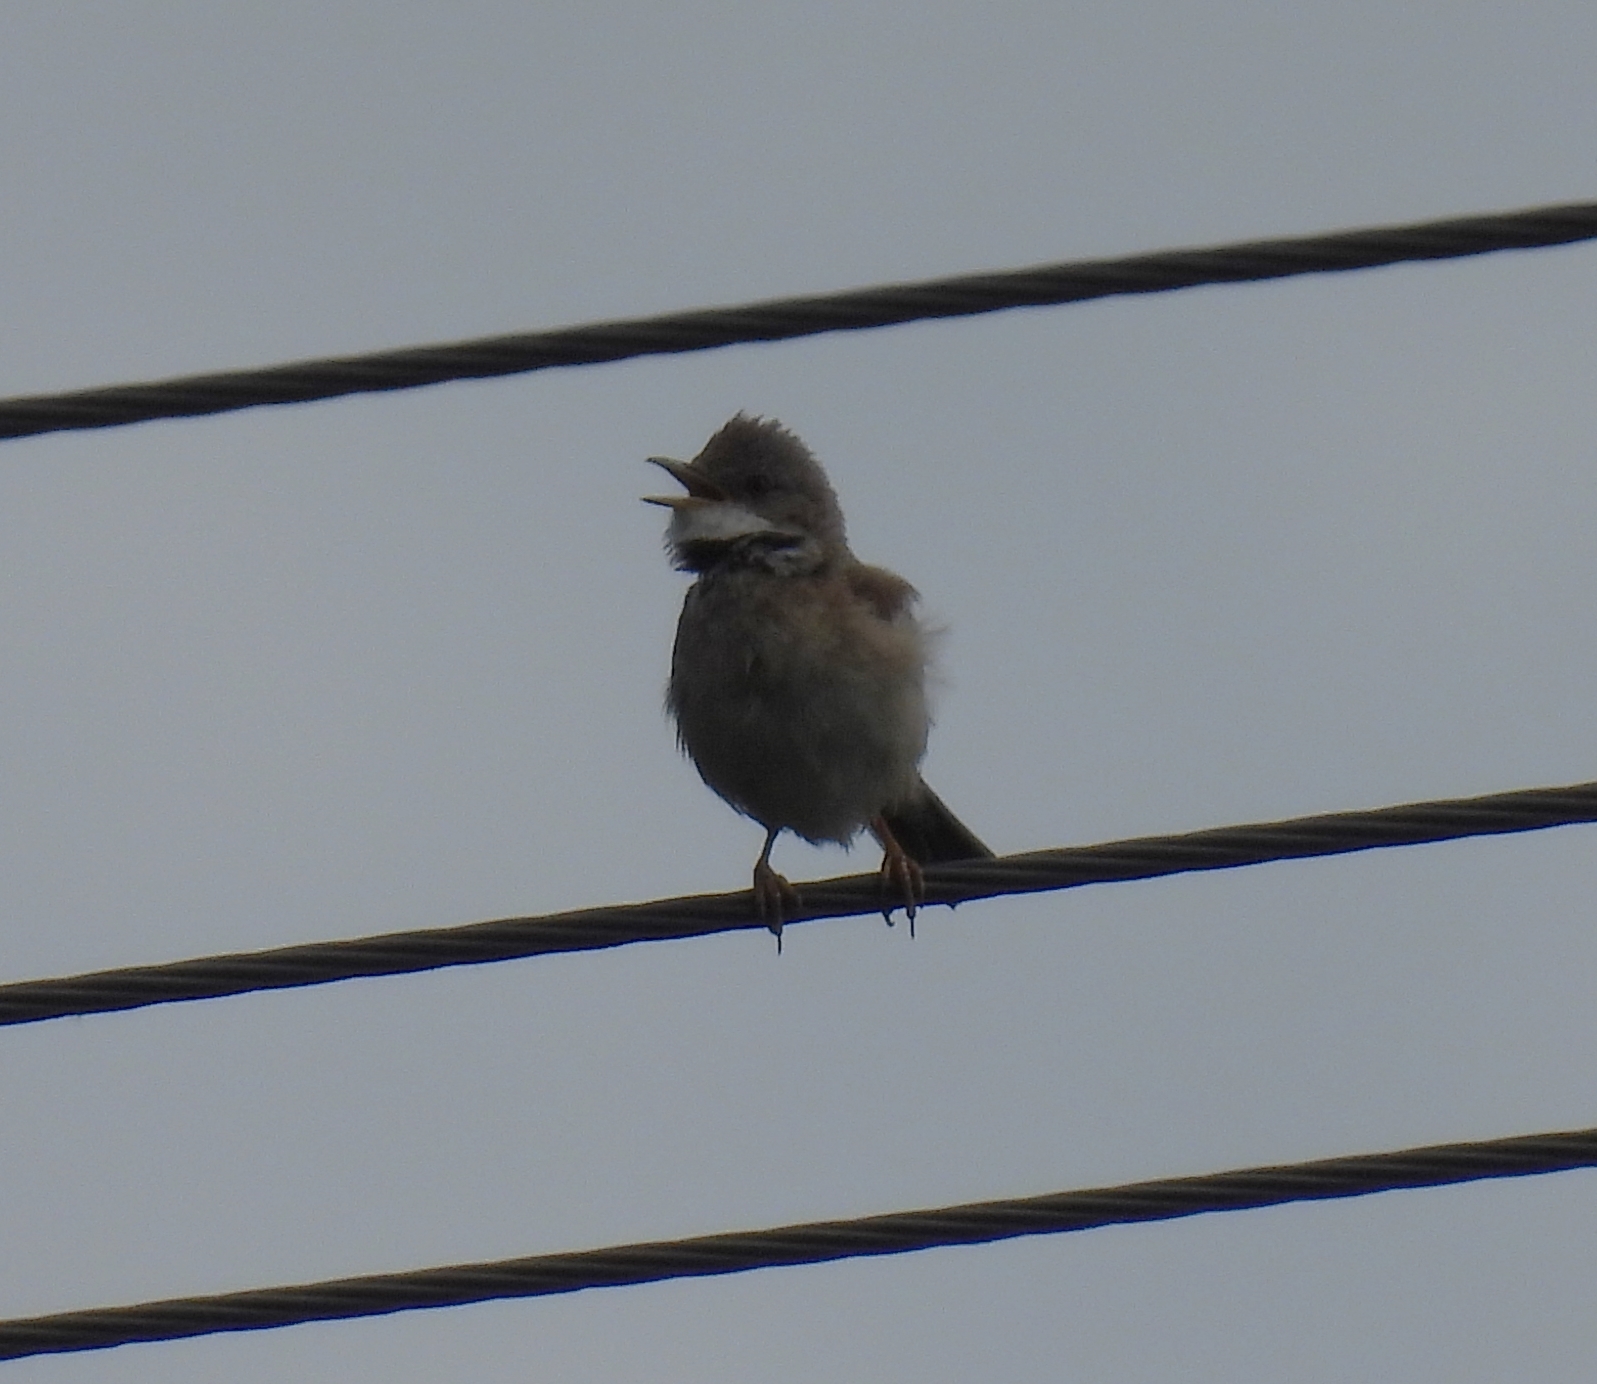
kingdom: Animalia
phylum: Chordata
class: Aves
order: Passeriformes
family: Sylviidae
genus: Sylvia
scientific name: Sylvia communis
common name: Common whitethroat
